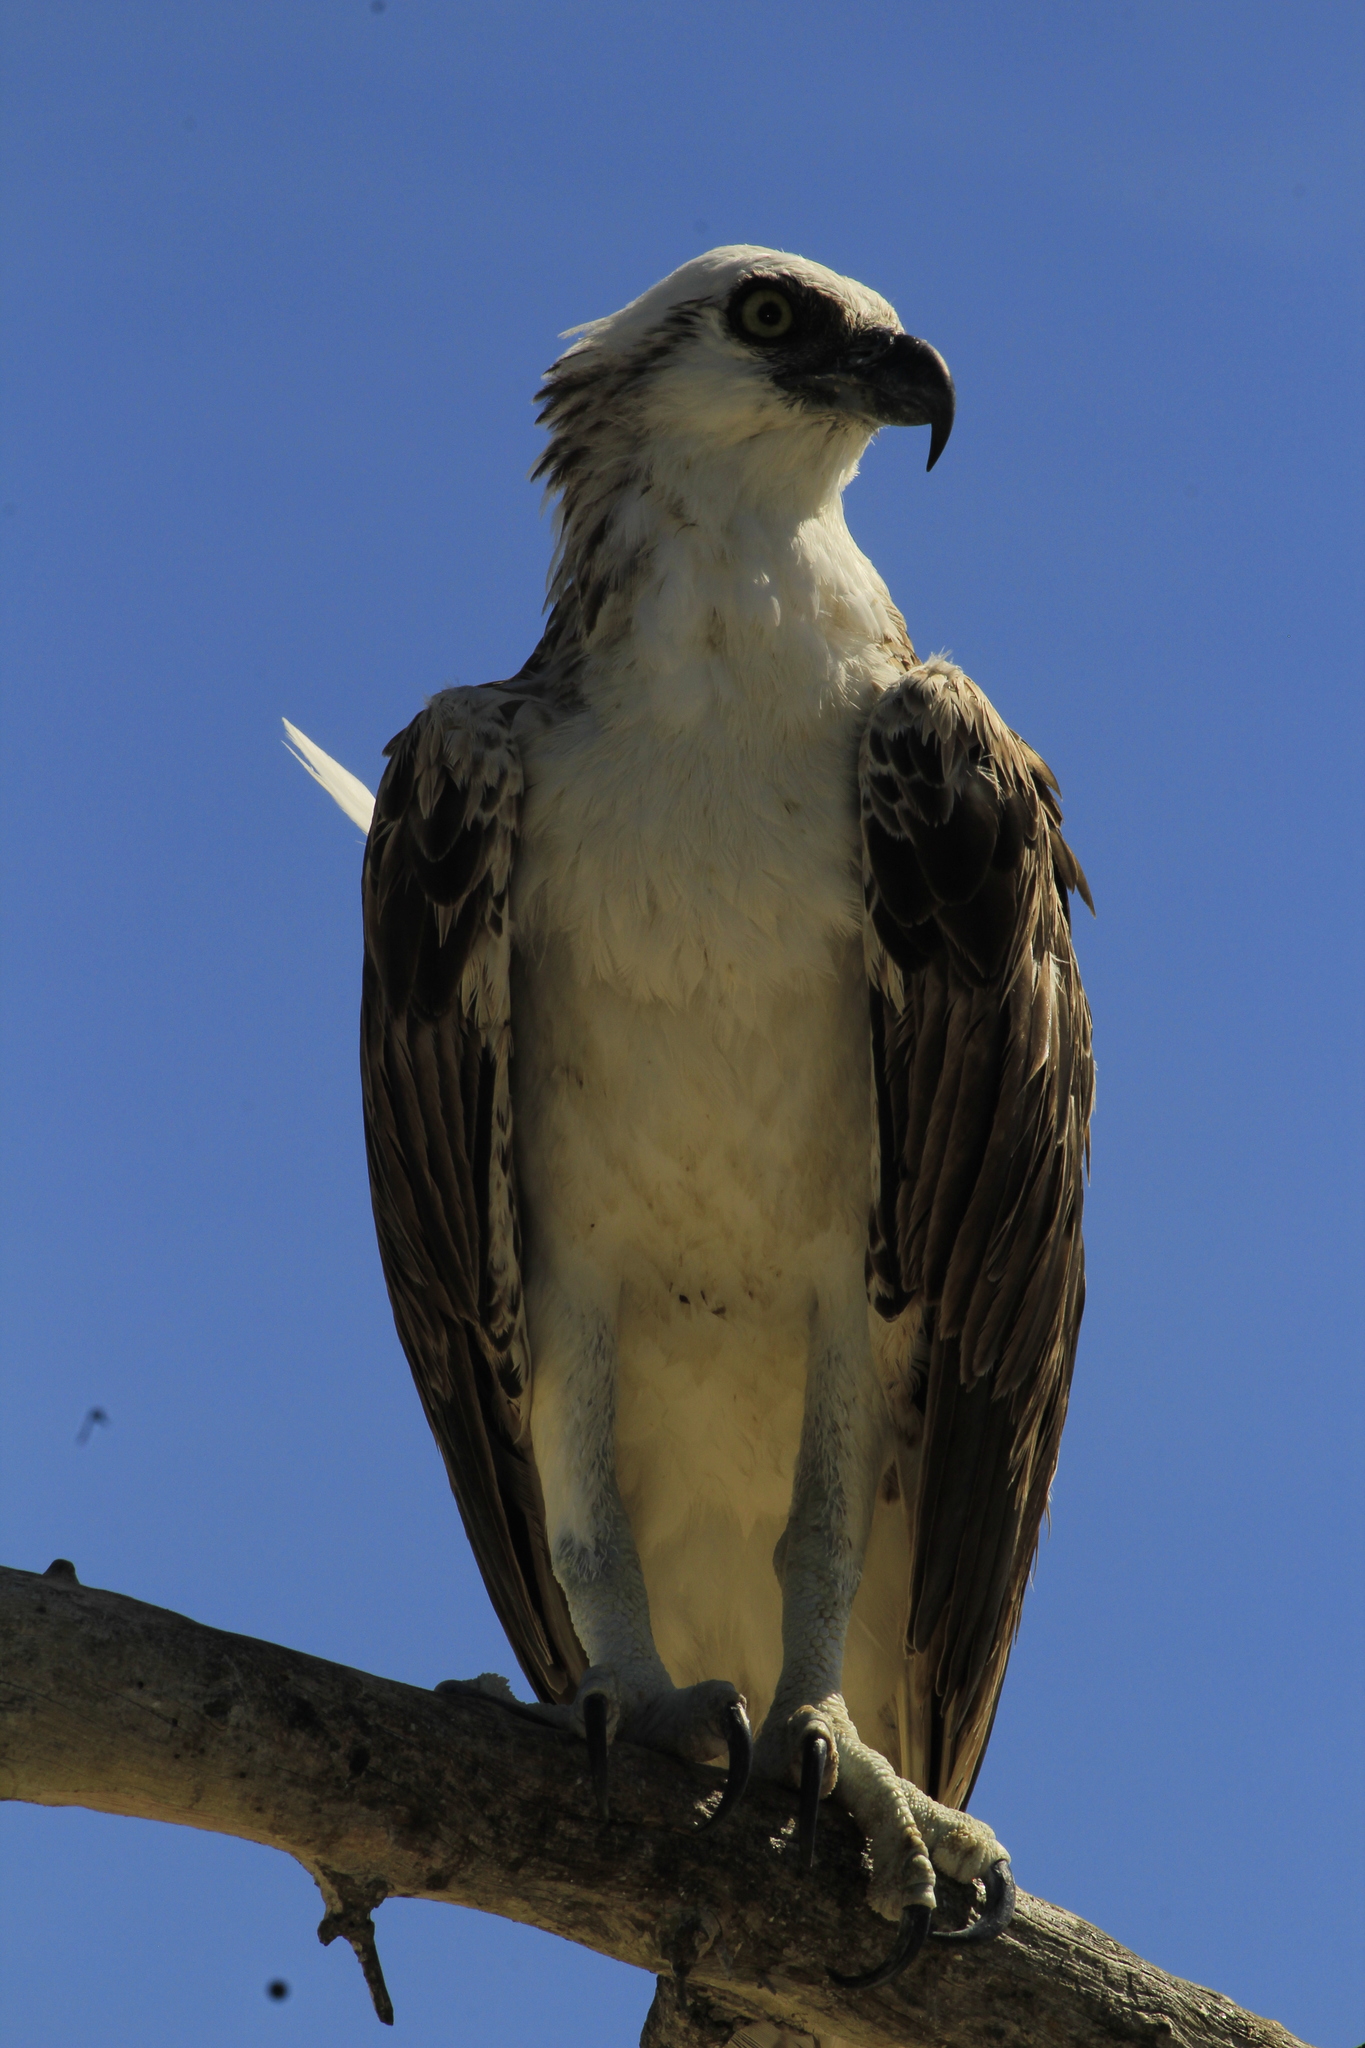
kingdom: Animalia
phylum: Chordata
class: Aves
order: Accipitriformes
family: Pandionidae
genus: Pandion
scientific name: Pandion haliaetus
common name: Osprey
